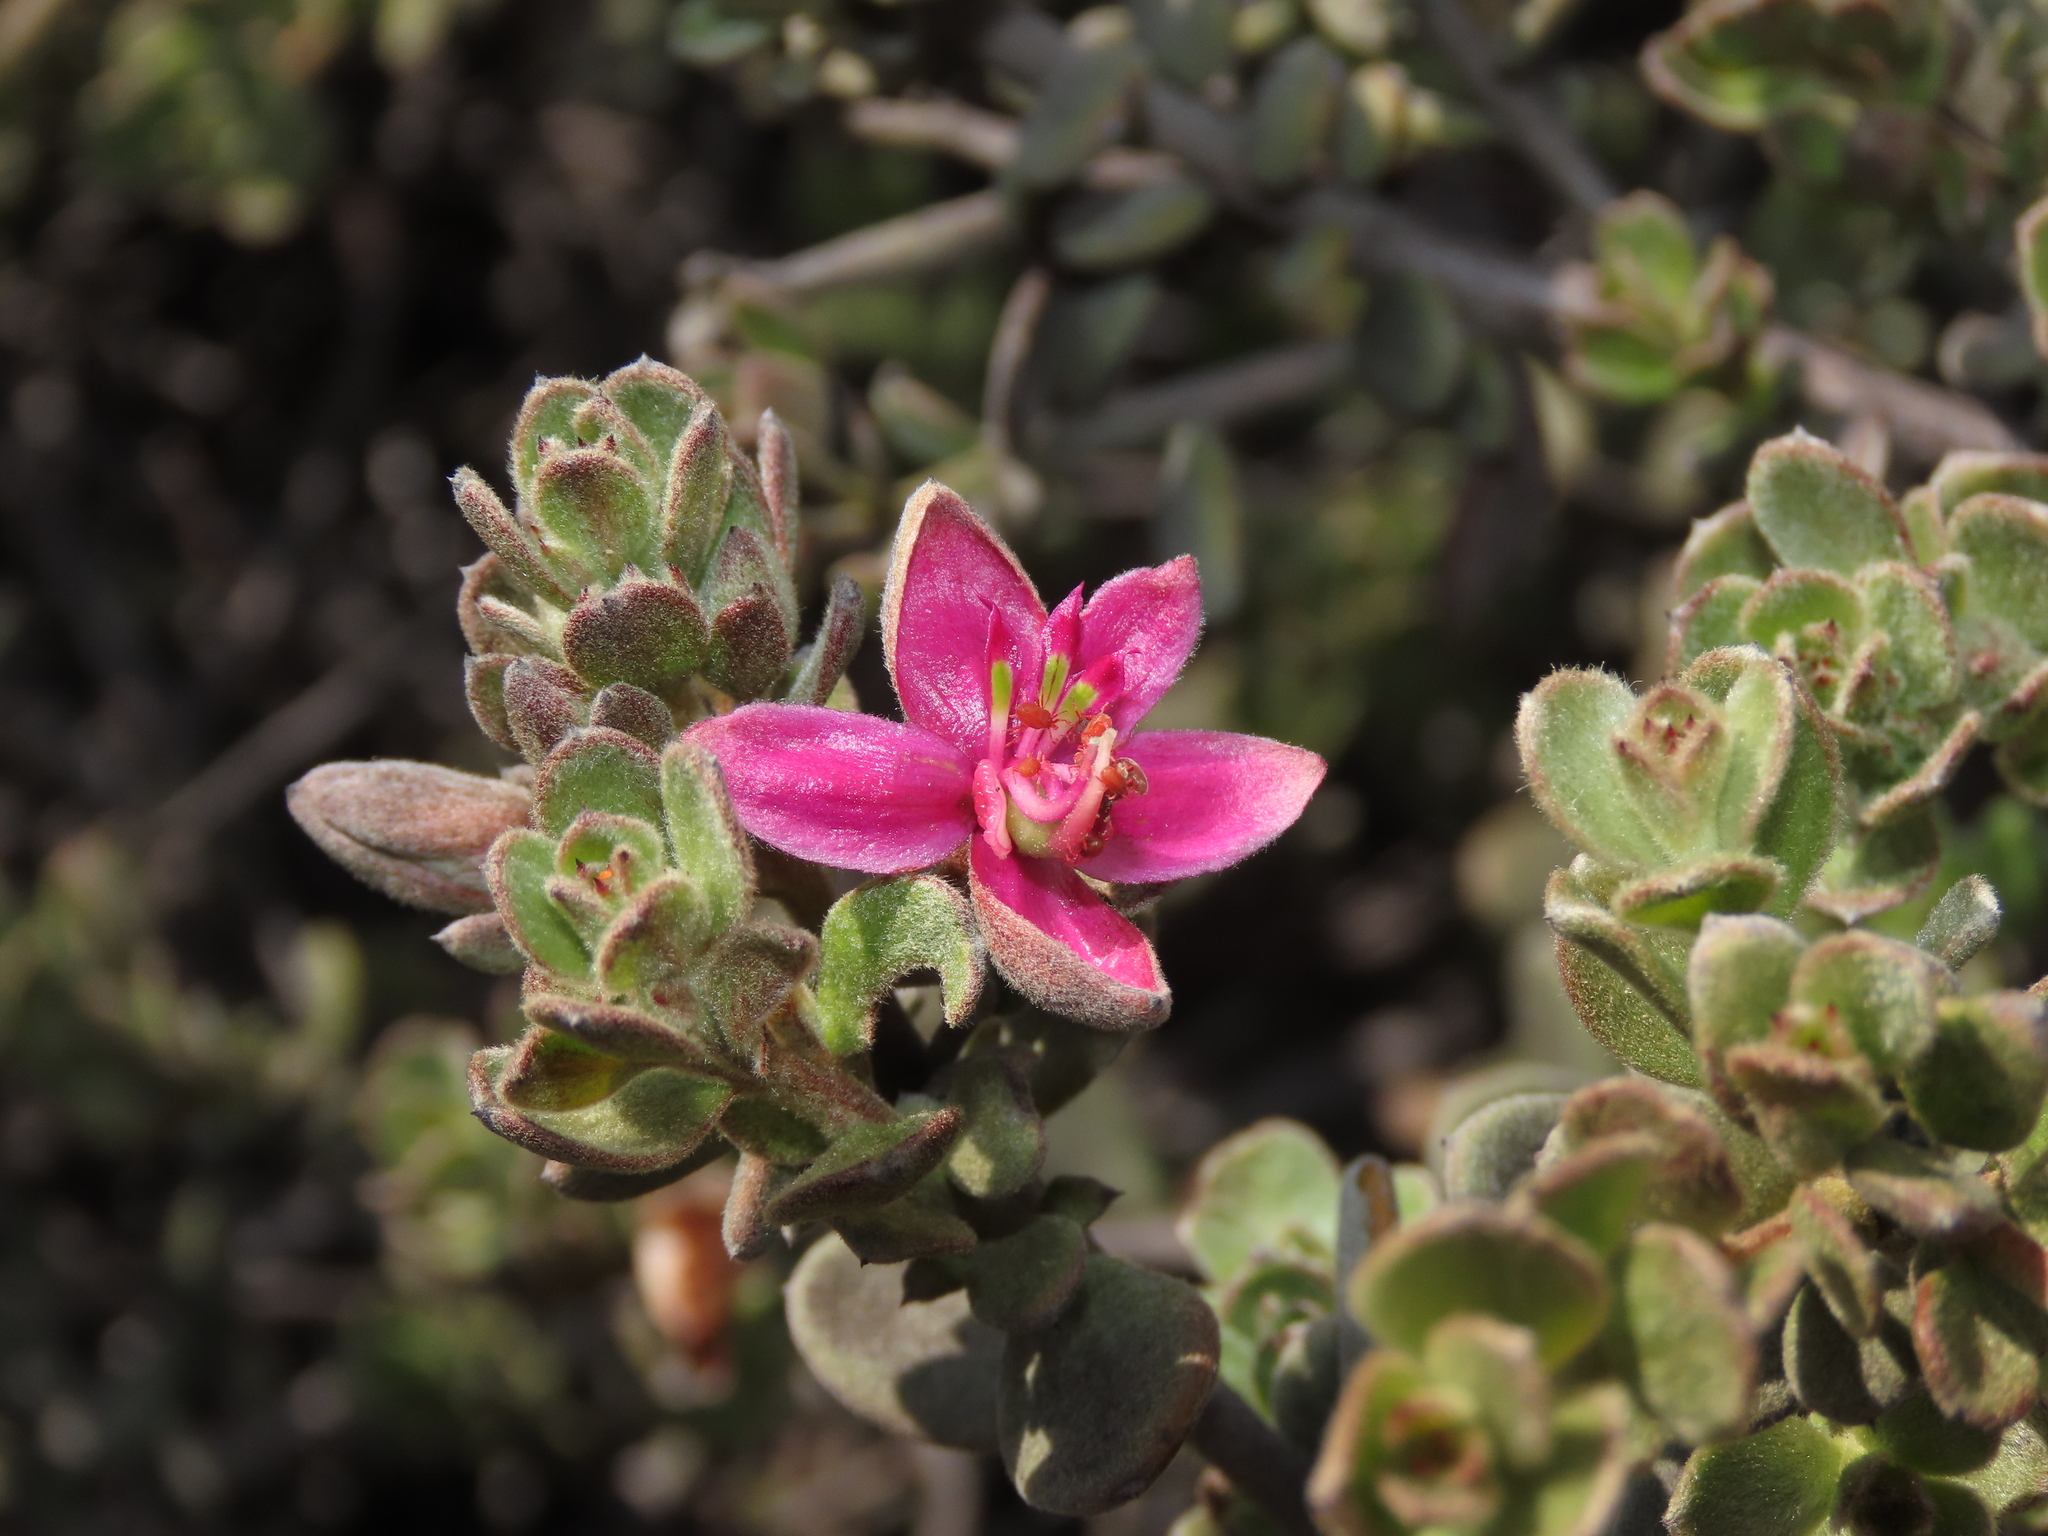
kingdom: Plantae
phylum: Tracheophyta
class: Magnoliopsida
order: Zygophyllales
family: Krameriaceae
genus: Krameria
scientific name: Krameria cistoidea
